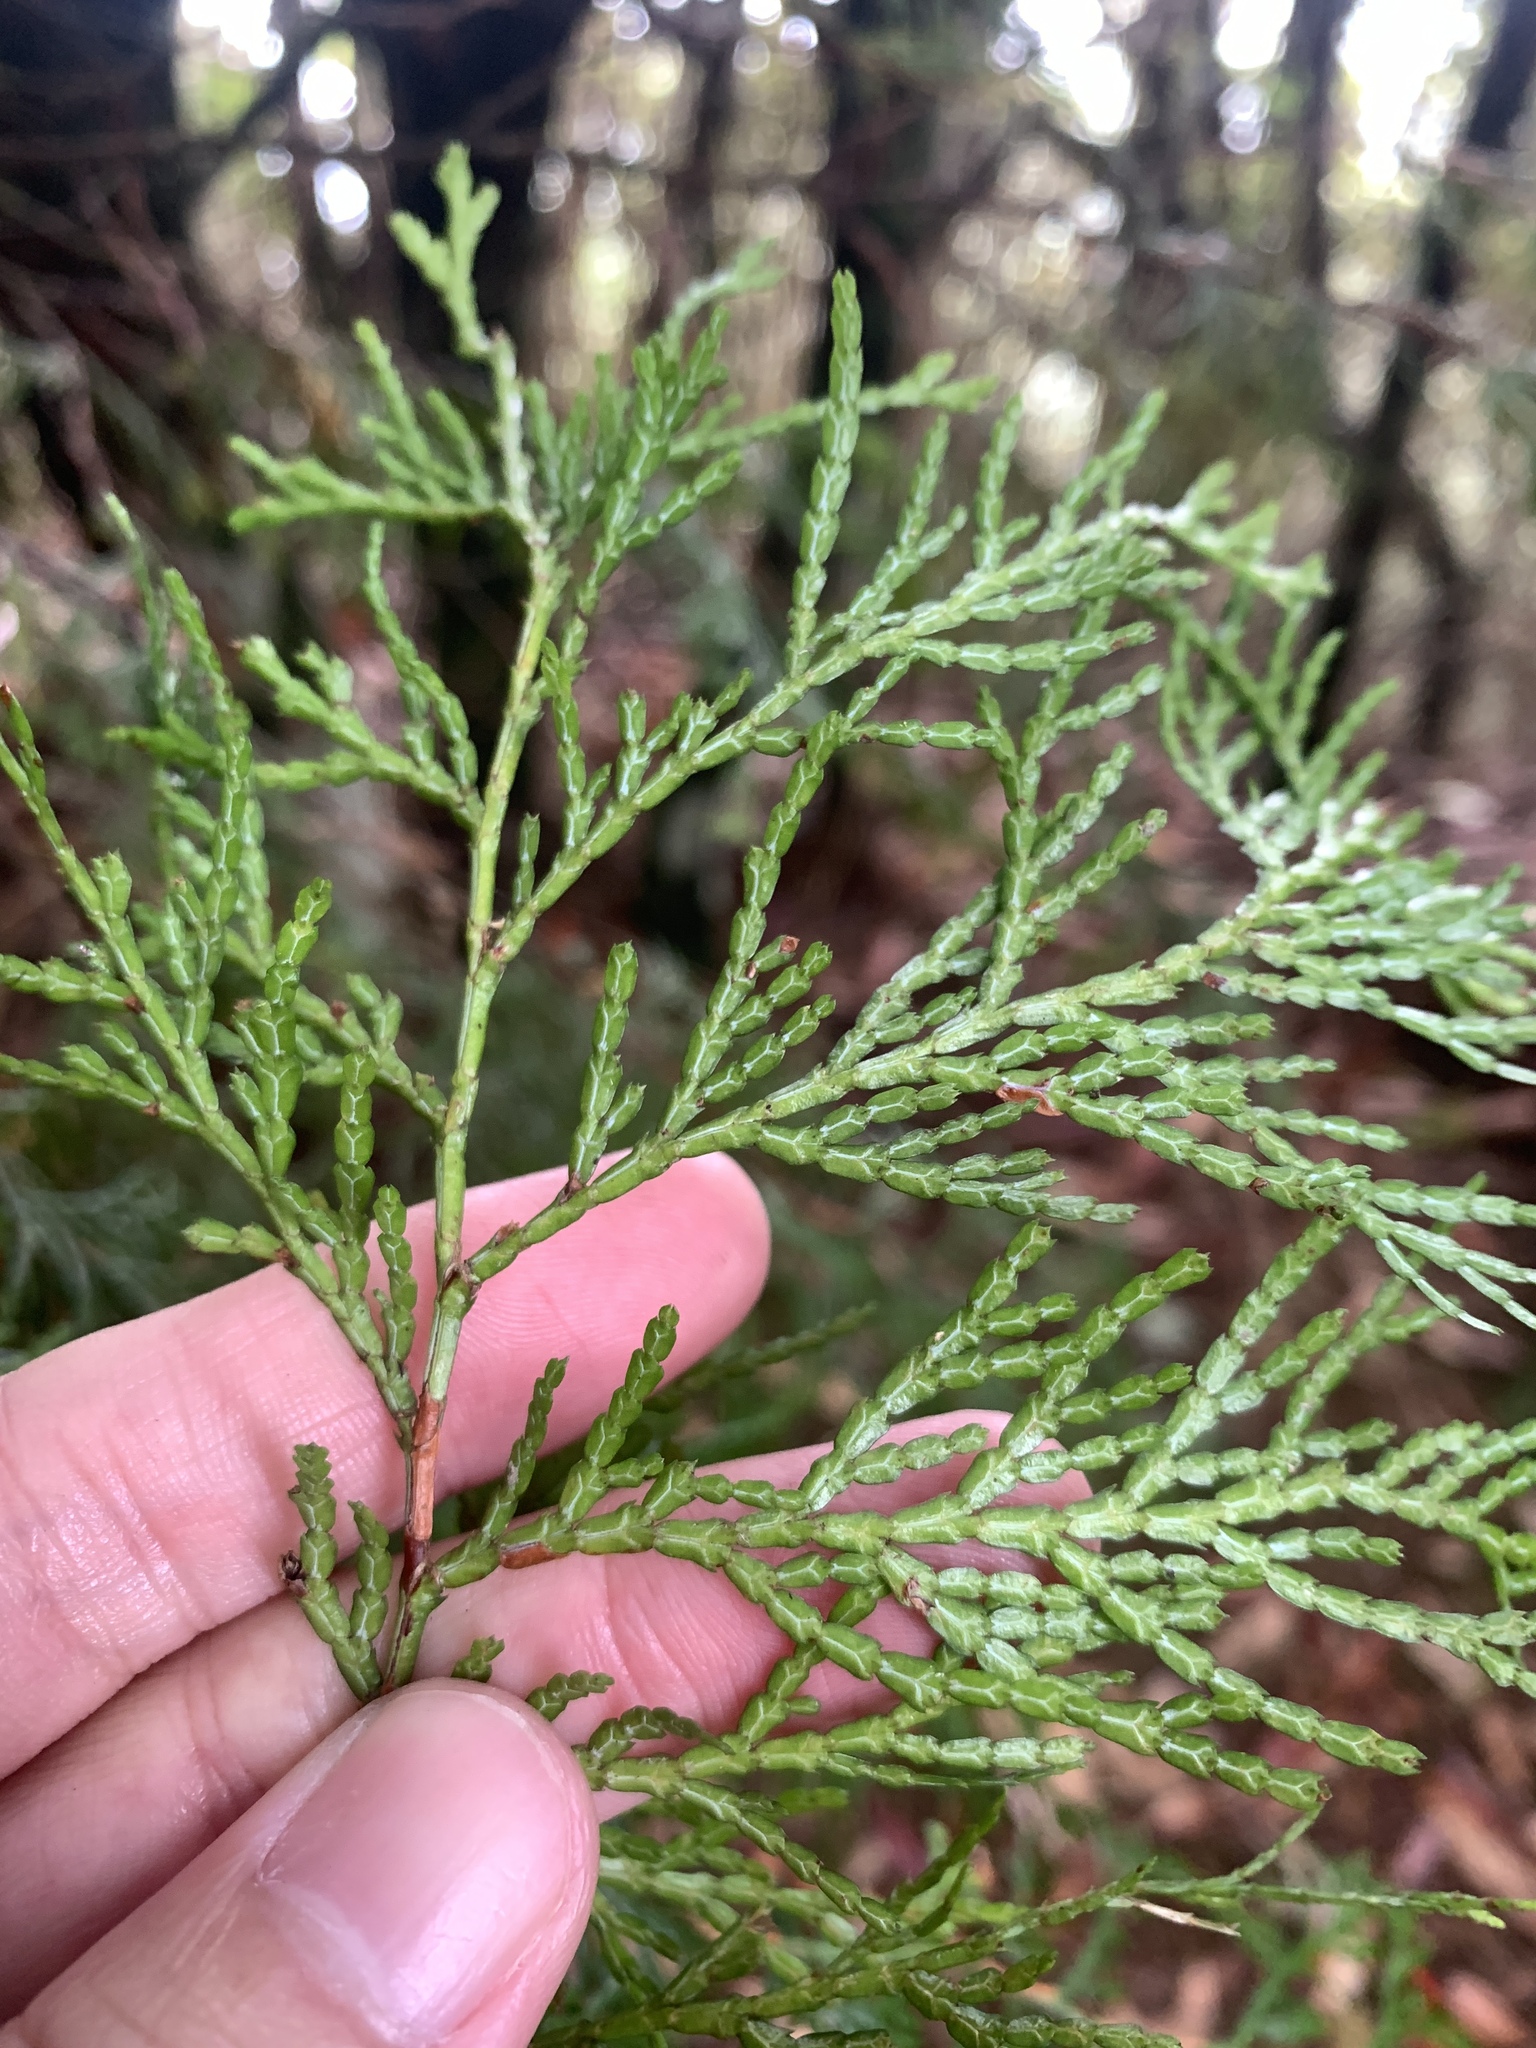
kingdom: Plantae
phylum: Tracheophyta
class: Pinopsida
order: Pinales
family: Cupressaceae
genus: Chamaecyparis
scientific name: Chamaecyparis obtusa
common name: Hinoki false cypress
